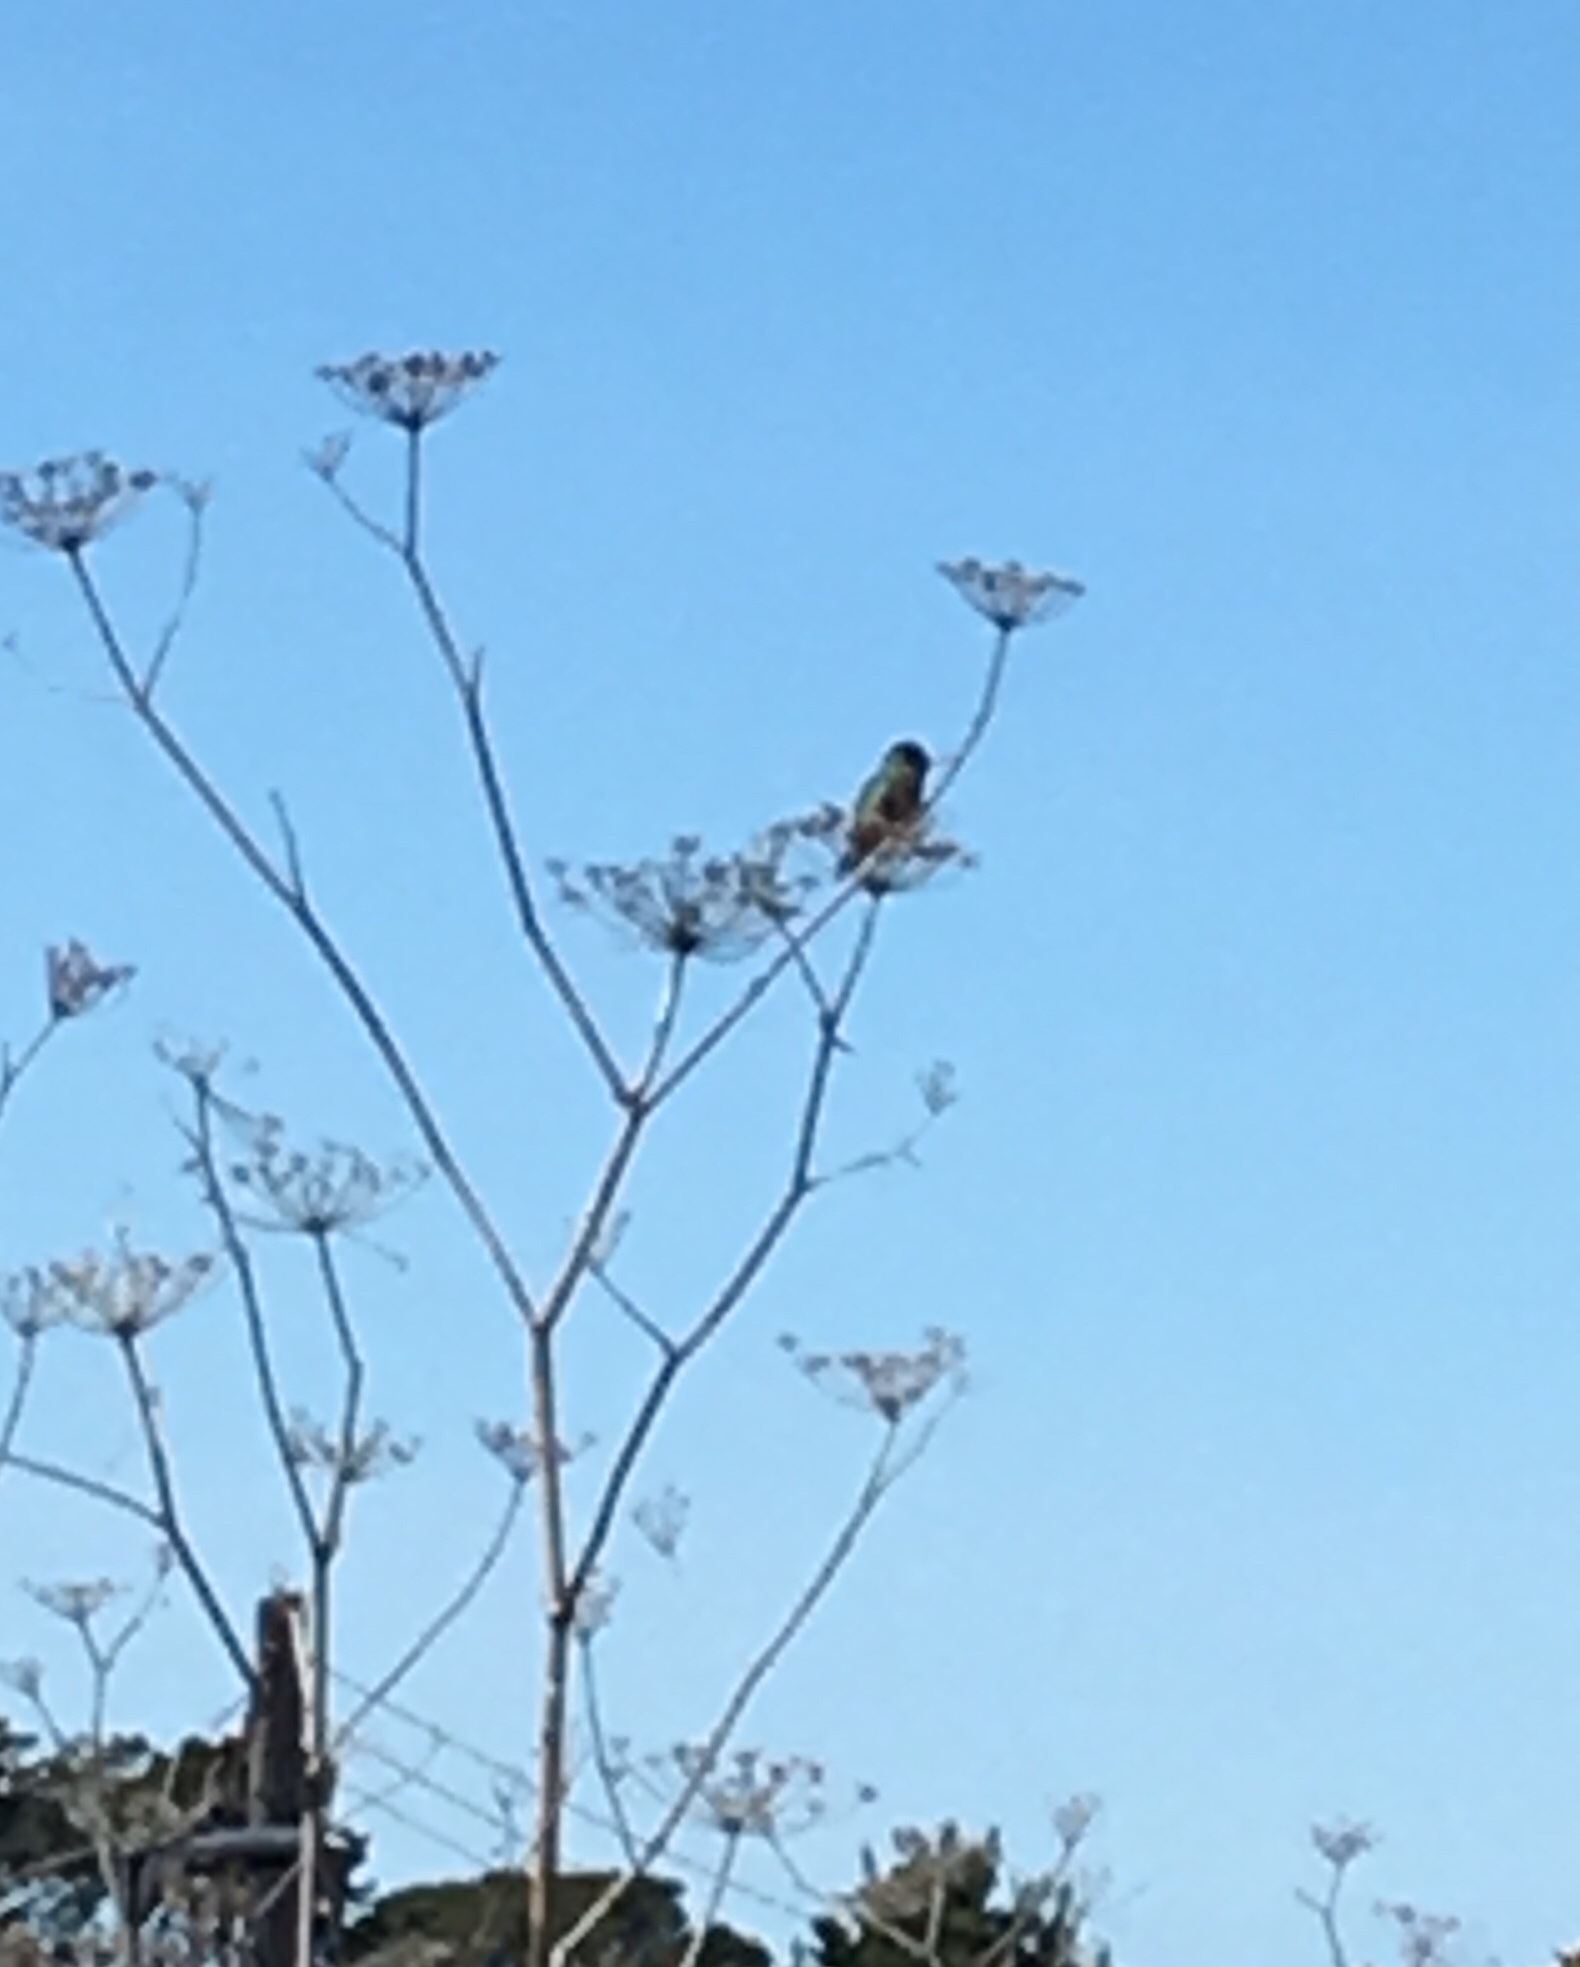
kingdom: Animalia
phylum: Chordata
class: Aves
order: Apodiformes
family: Trochilidae
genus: Calypte
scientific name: Calypte anna
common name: Anna's hummingbird
